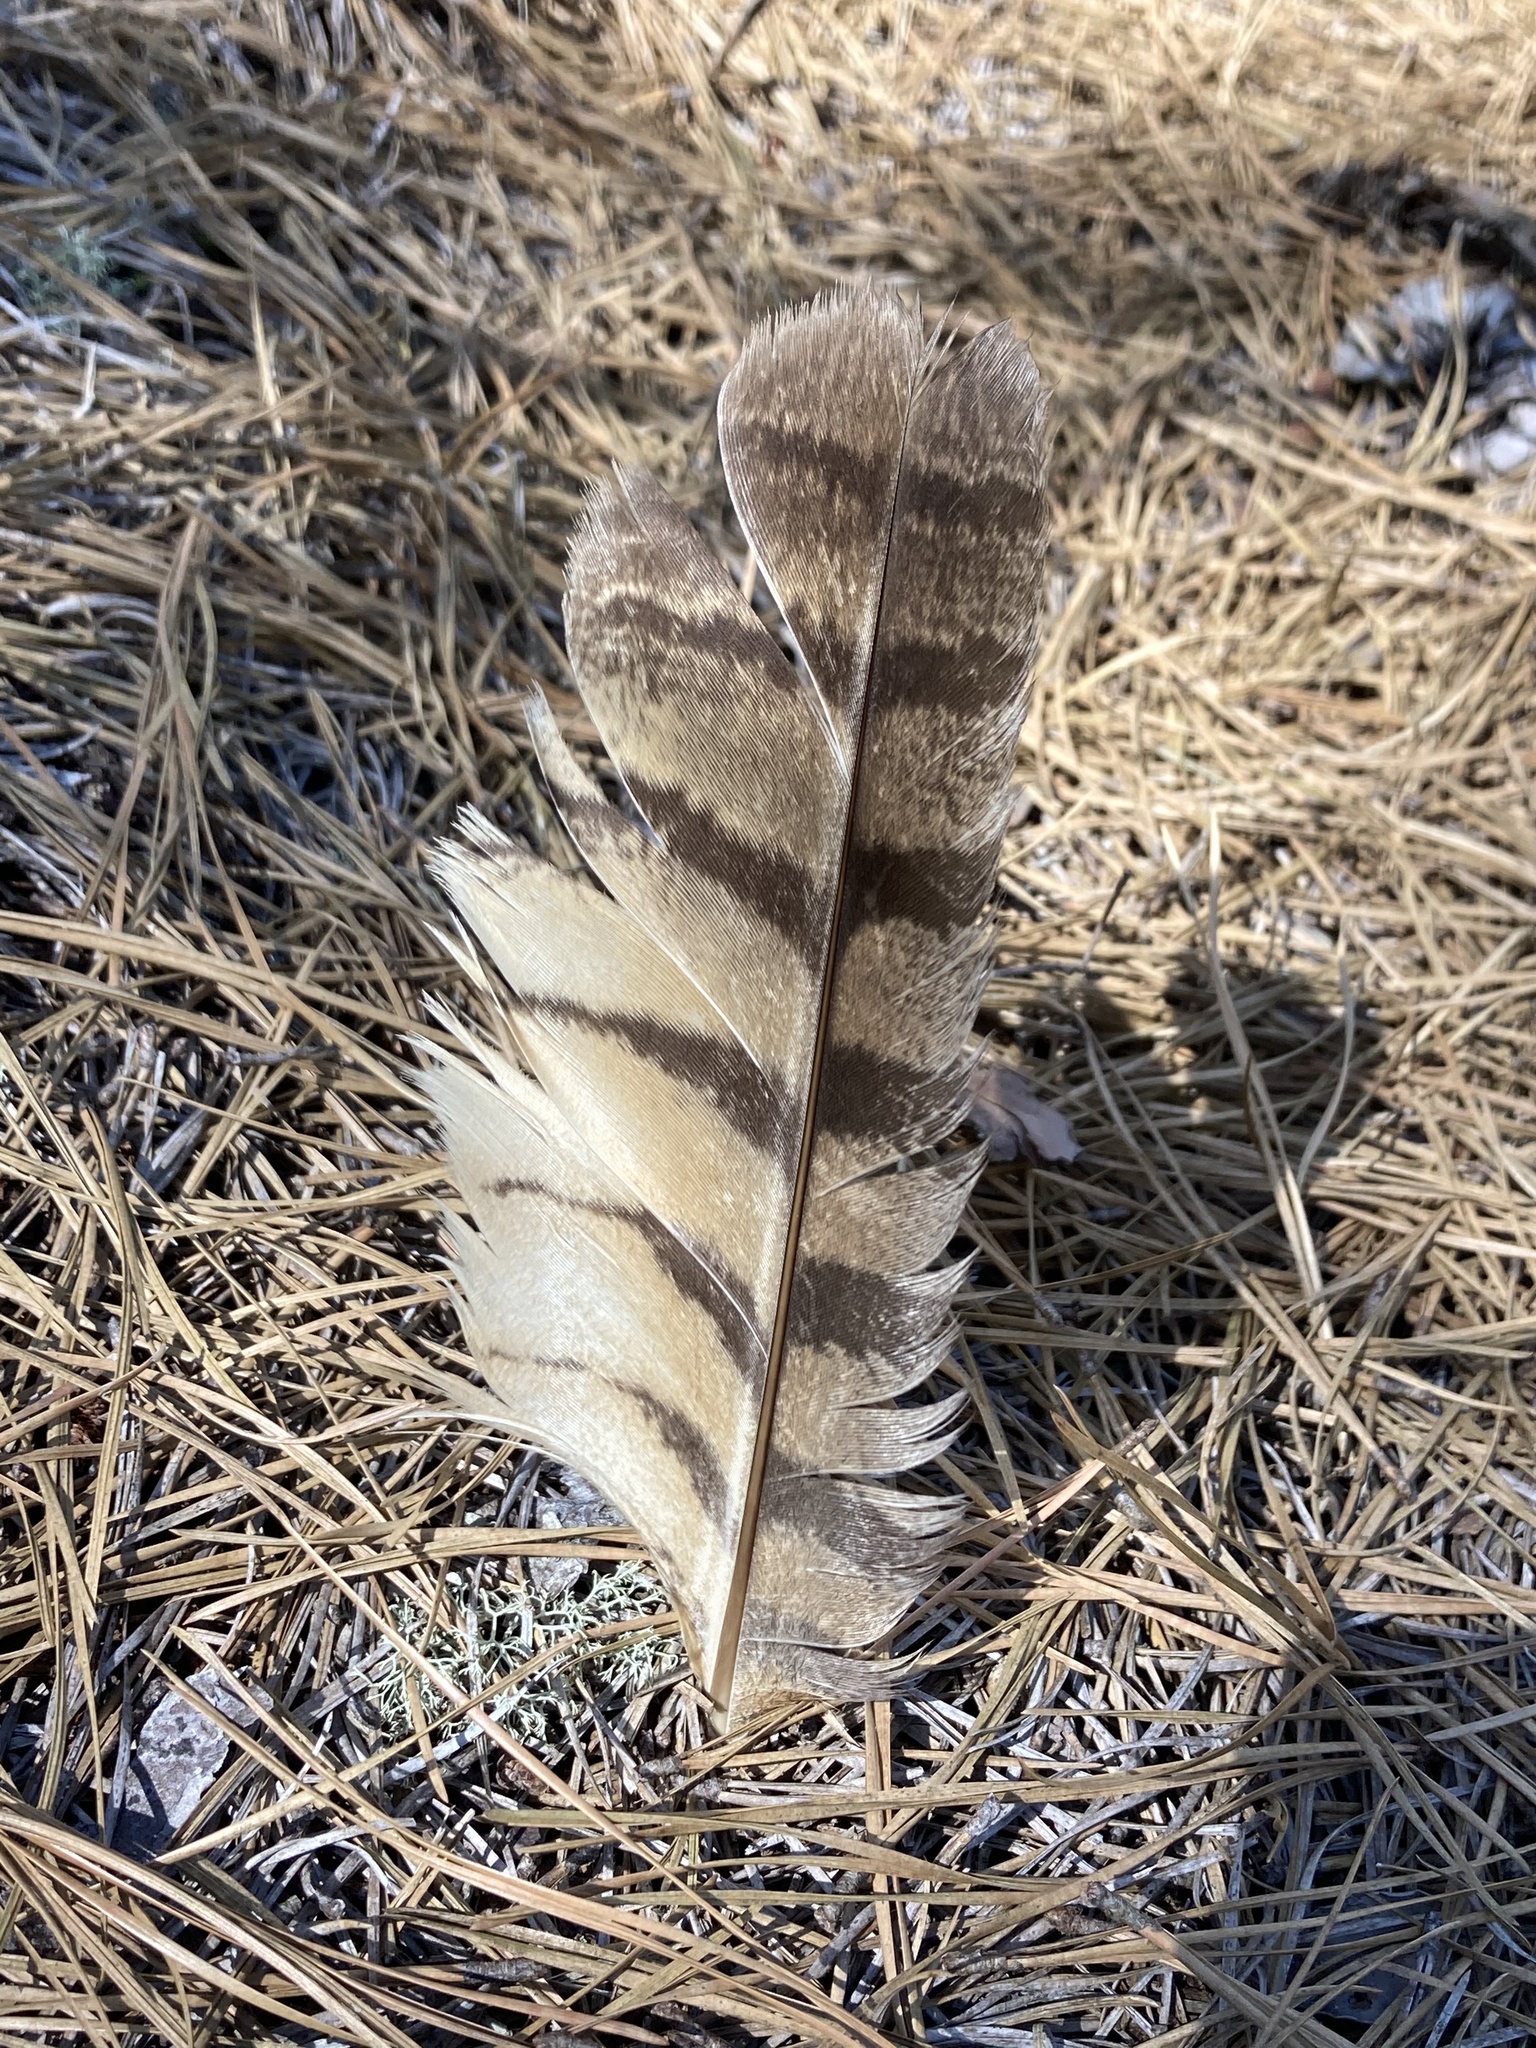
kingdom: Animalia
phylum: Chordata
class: Aves
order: Strigiformes
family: Strigidae
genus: Bubo
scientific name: Bubo virginianus
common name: Great horned owl
